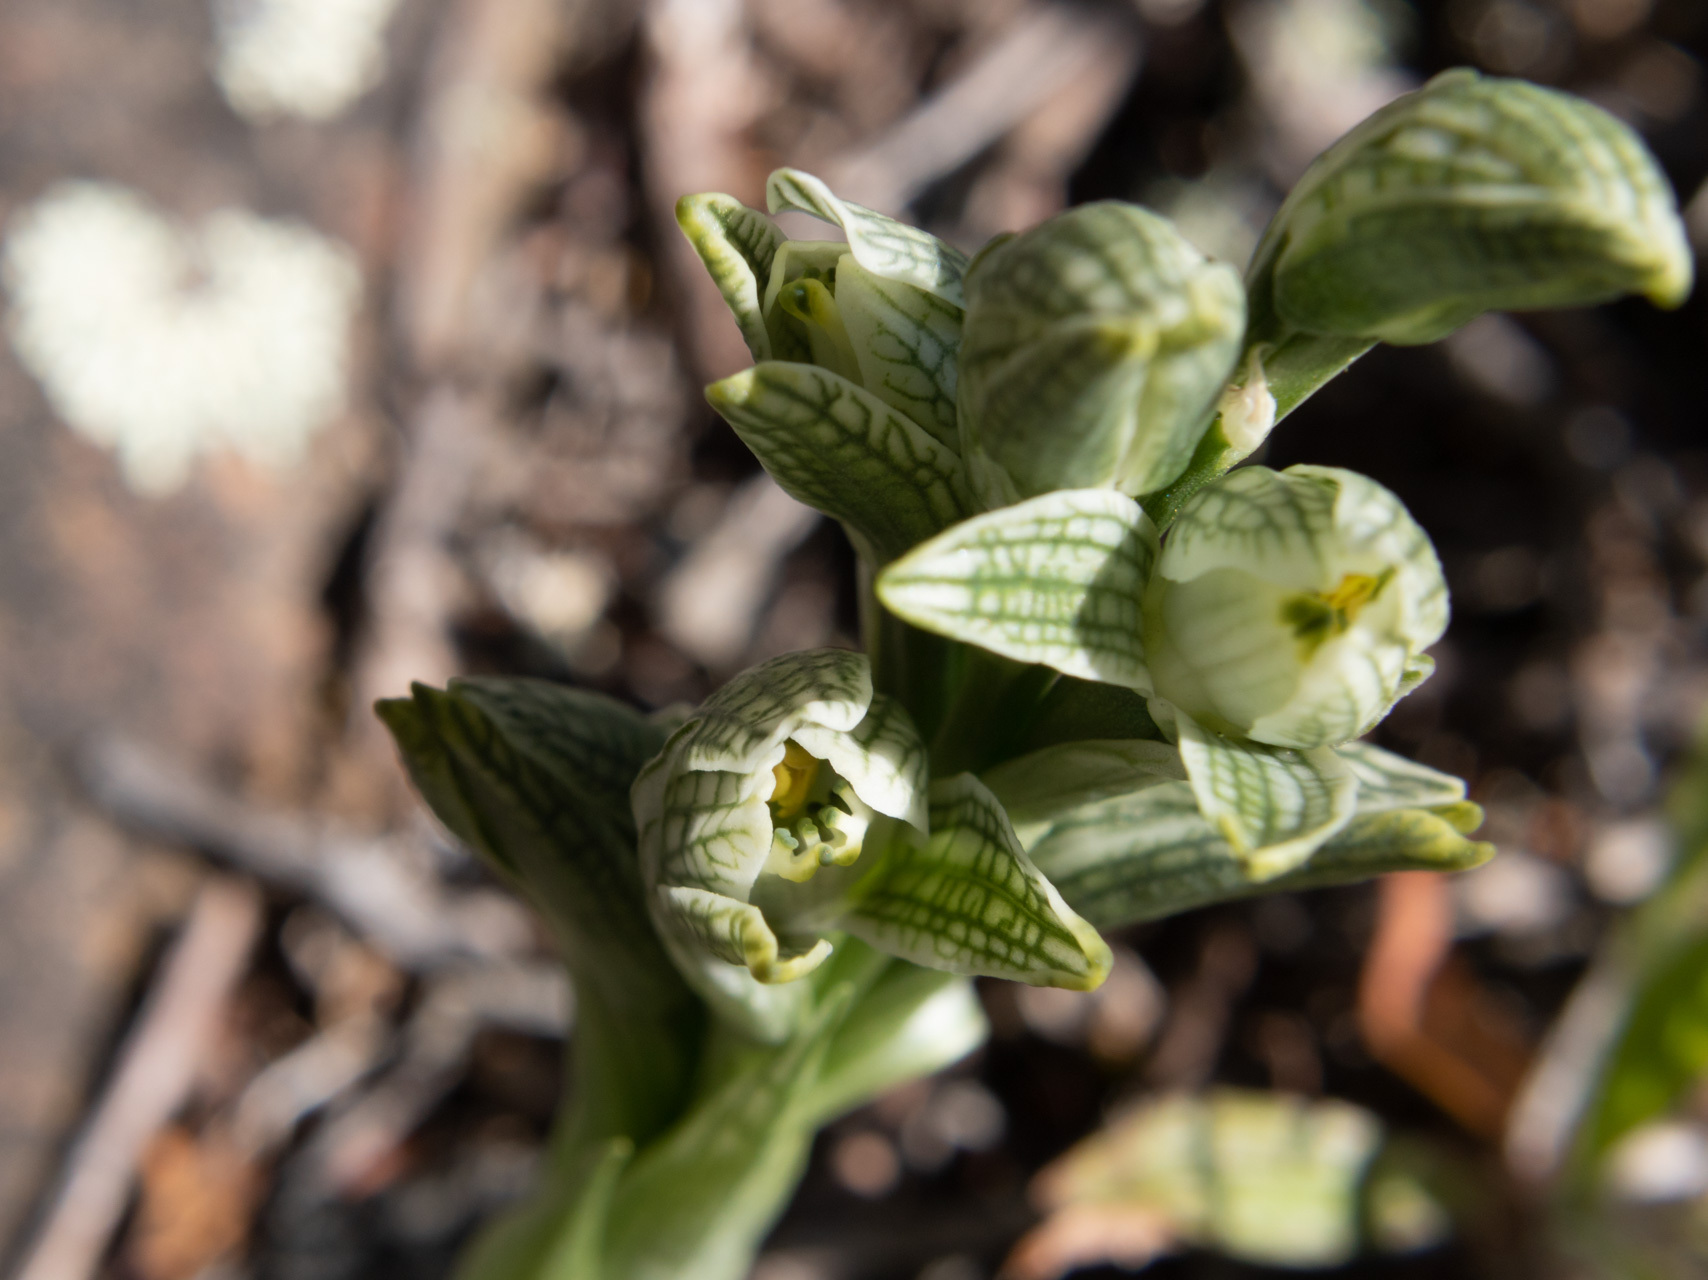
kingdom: Plantae
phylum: Tracheophyta
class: Liliopsida
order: Asparagales
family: Orchidaceae
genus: Chloraea
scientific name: Chloraea fonkii
